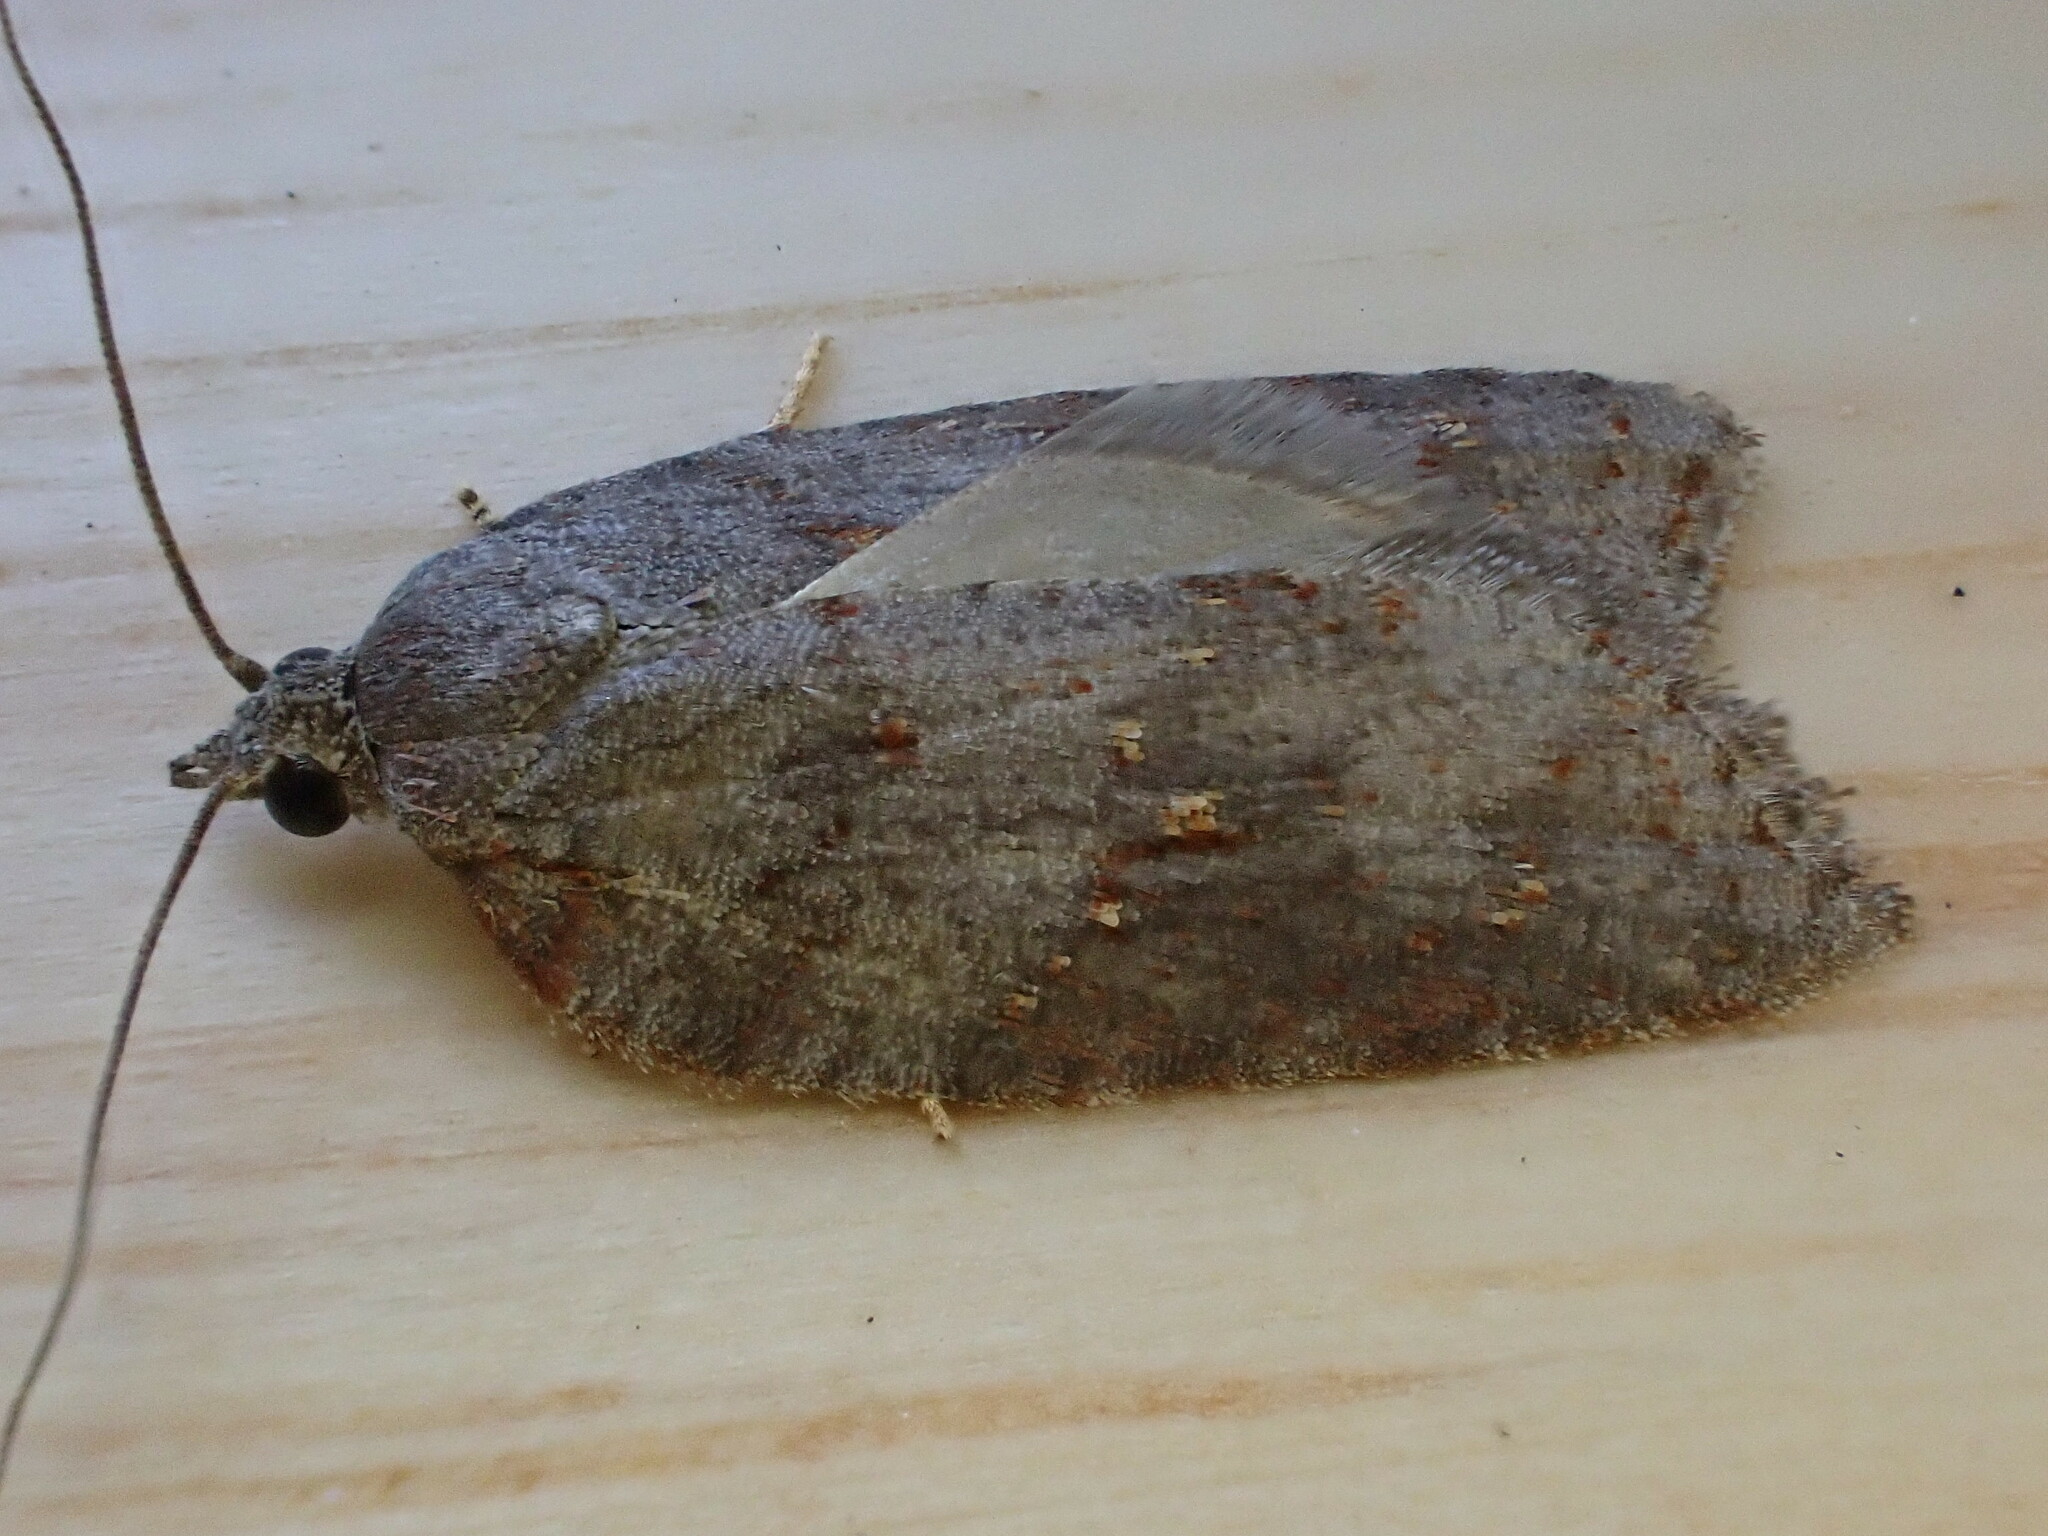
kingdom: Animalia
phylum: Arthropoda
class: Insecta
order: Lepidoptera
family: Tortricidae
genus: Acleris
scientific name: Acleris sparsana
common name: Ashy button
